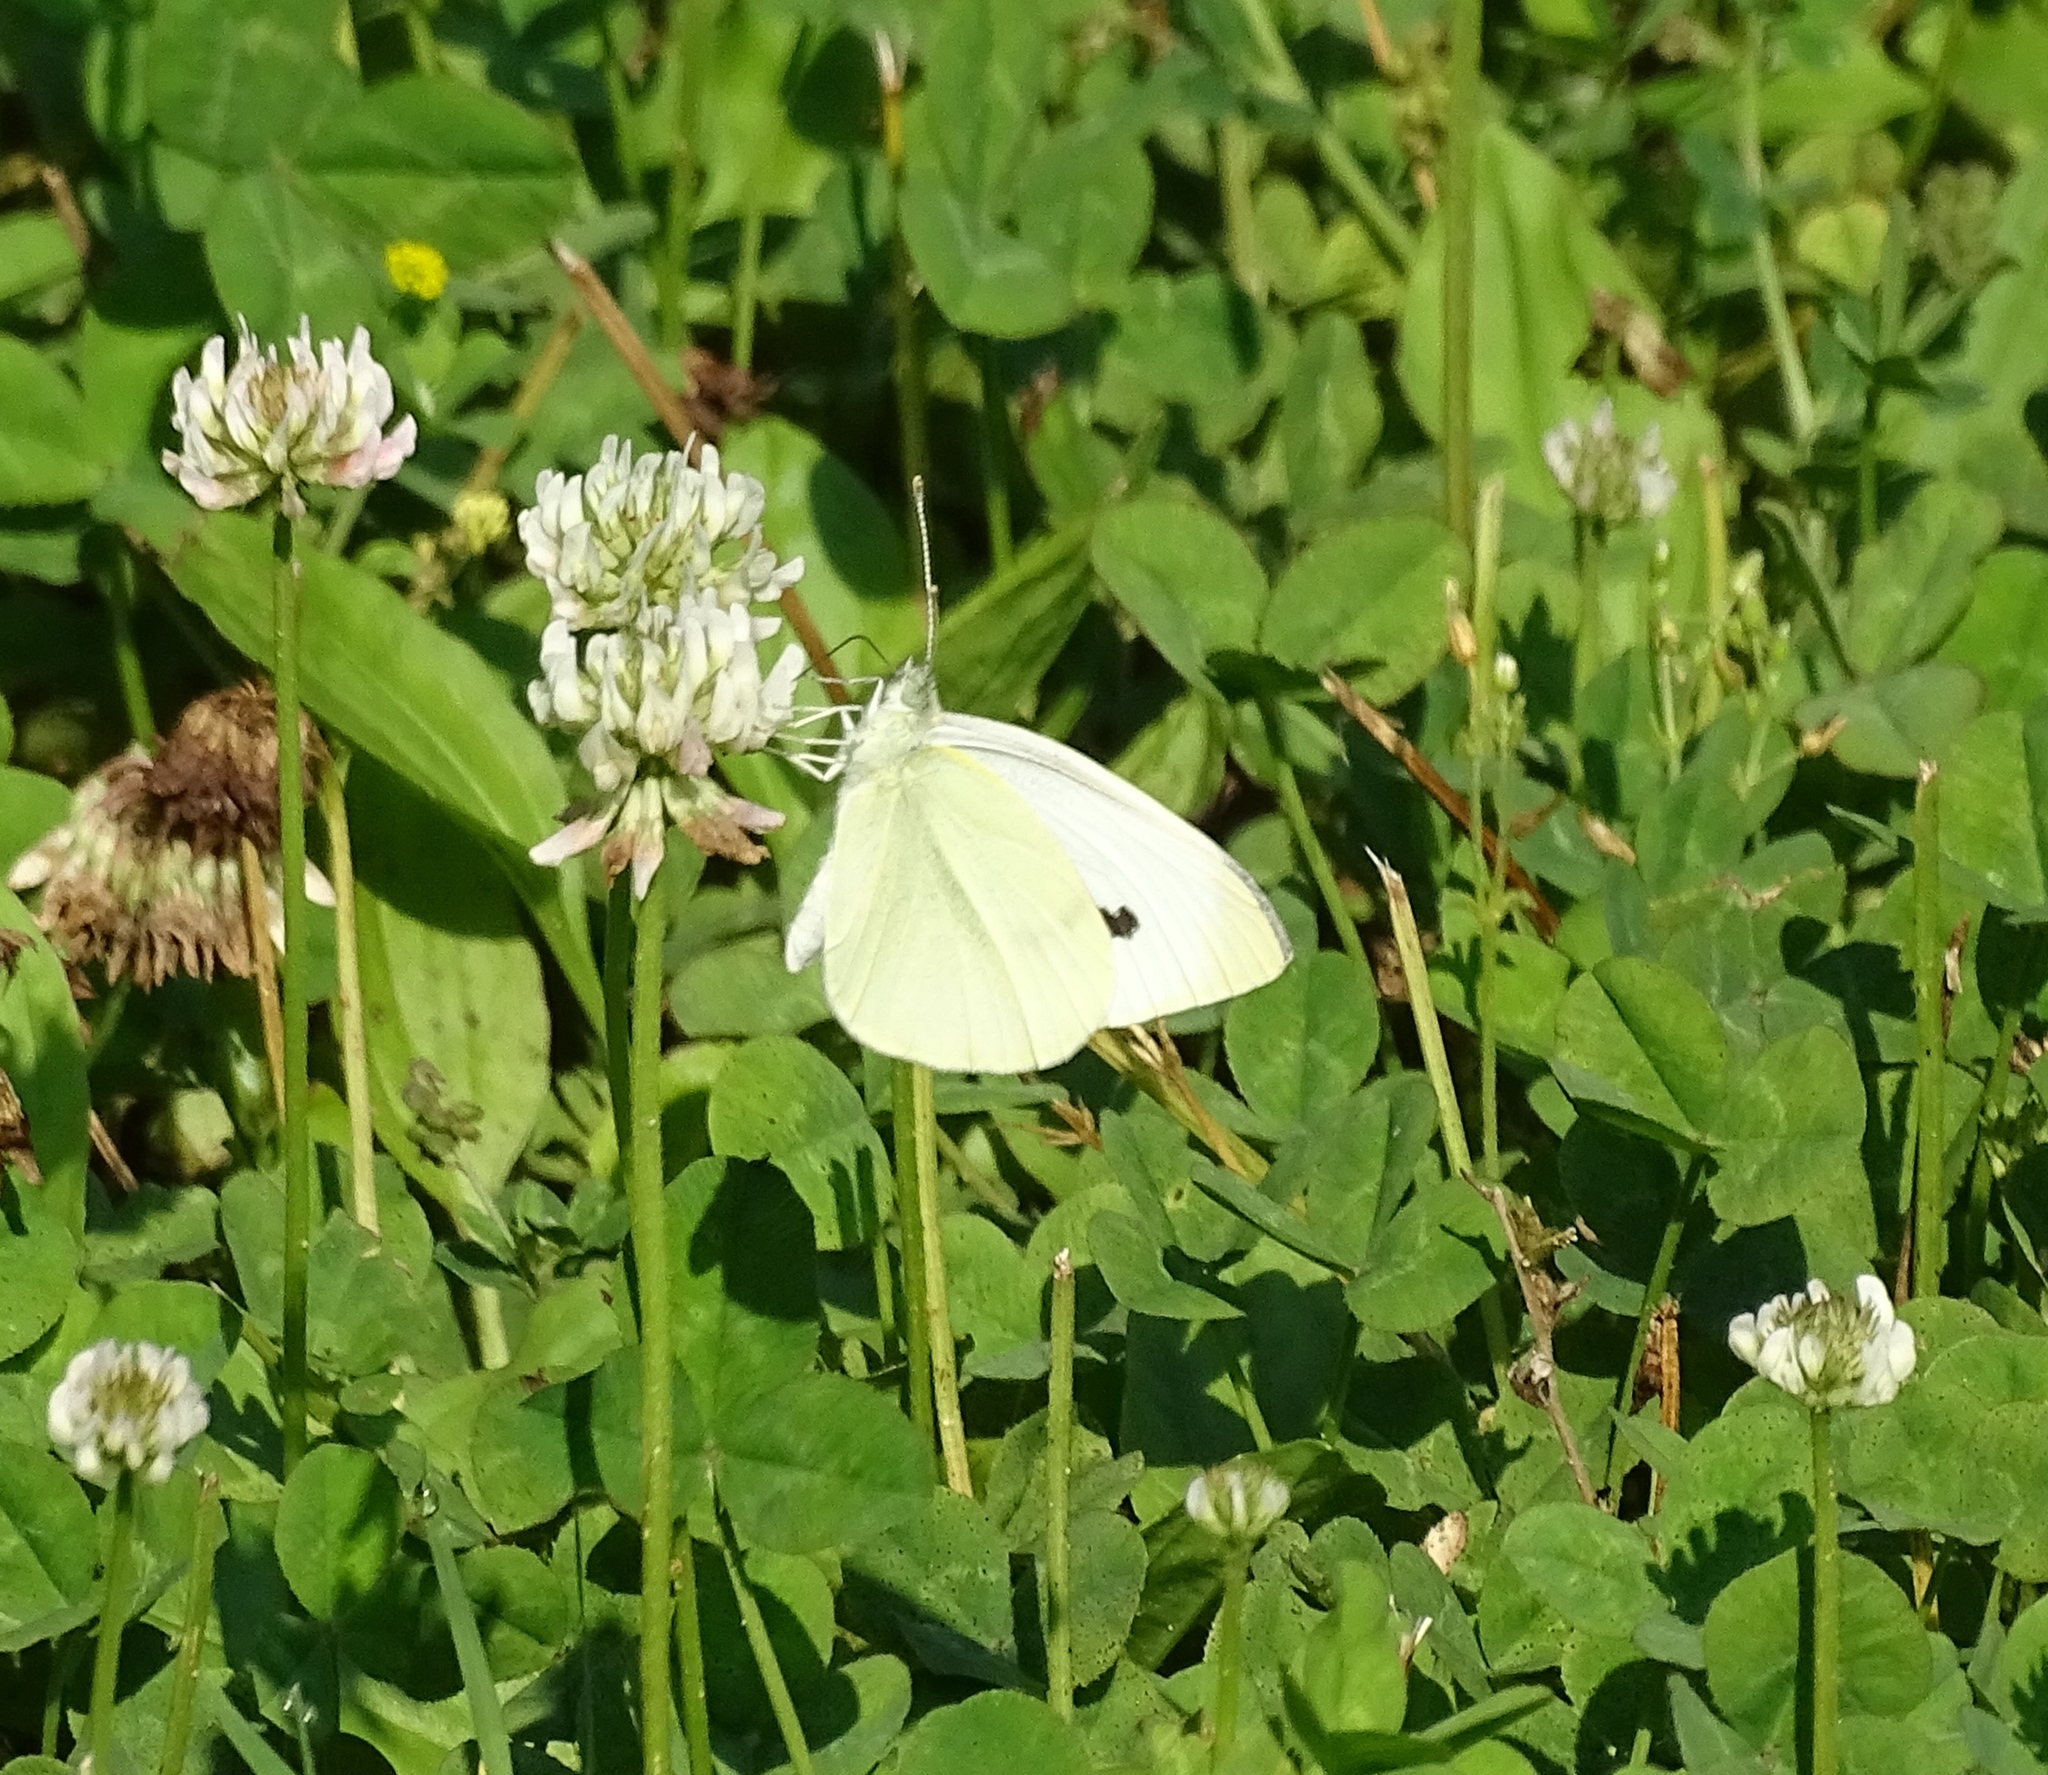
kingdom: Animalia
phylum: Arthropoda
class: Insecta
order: Lepidoptera
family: Pieridae
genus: Pieris
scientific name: Pieris rapae
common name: Small white
